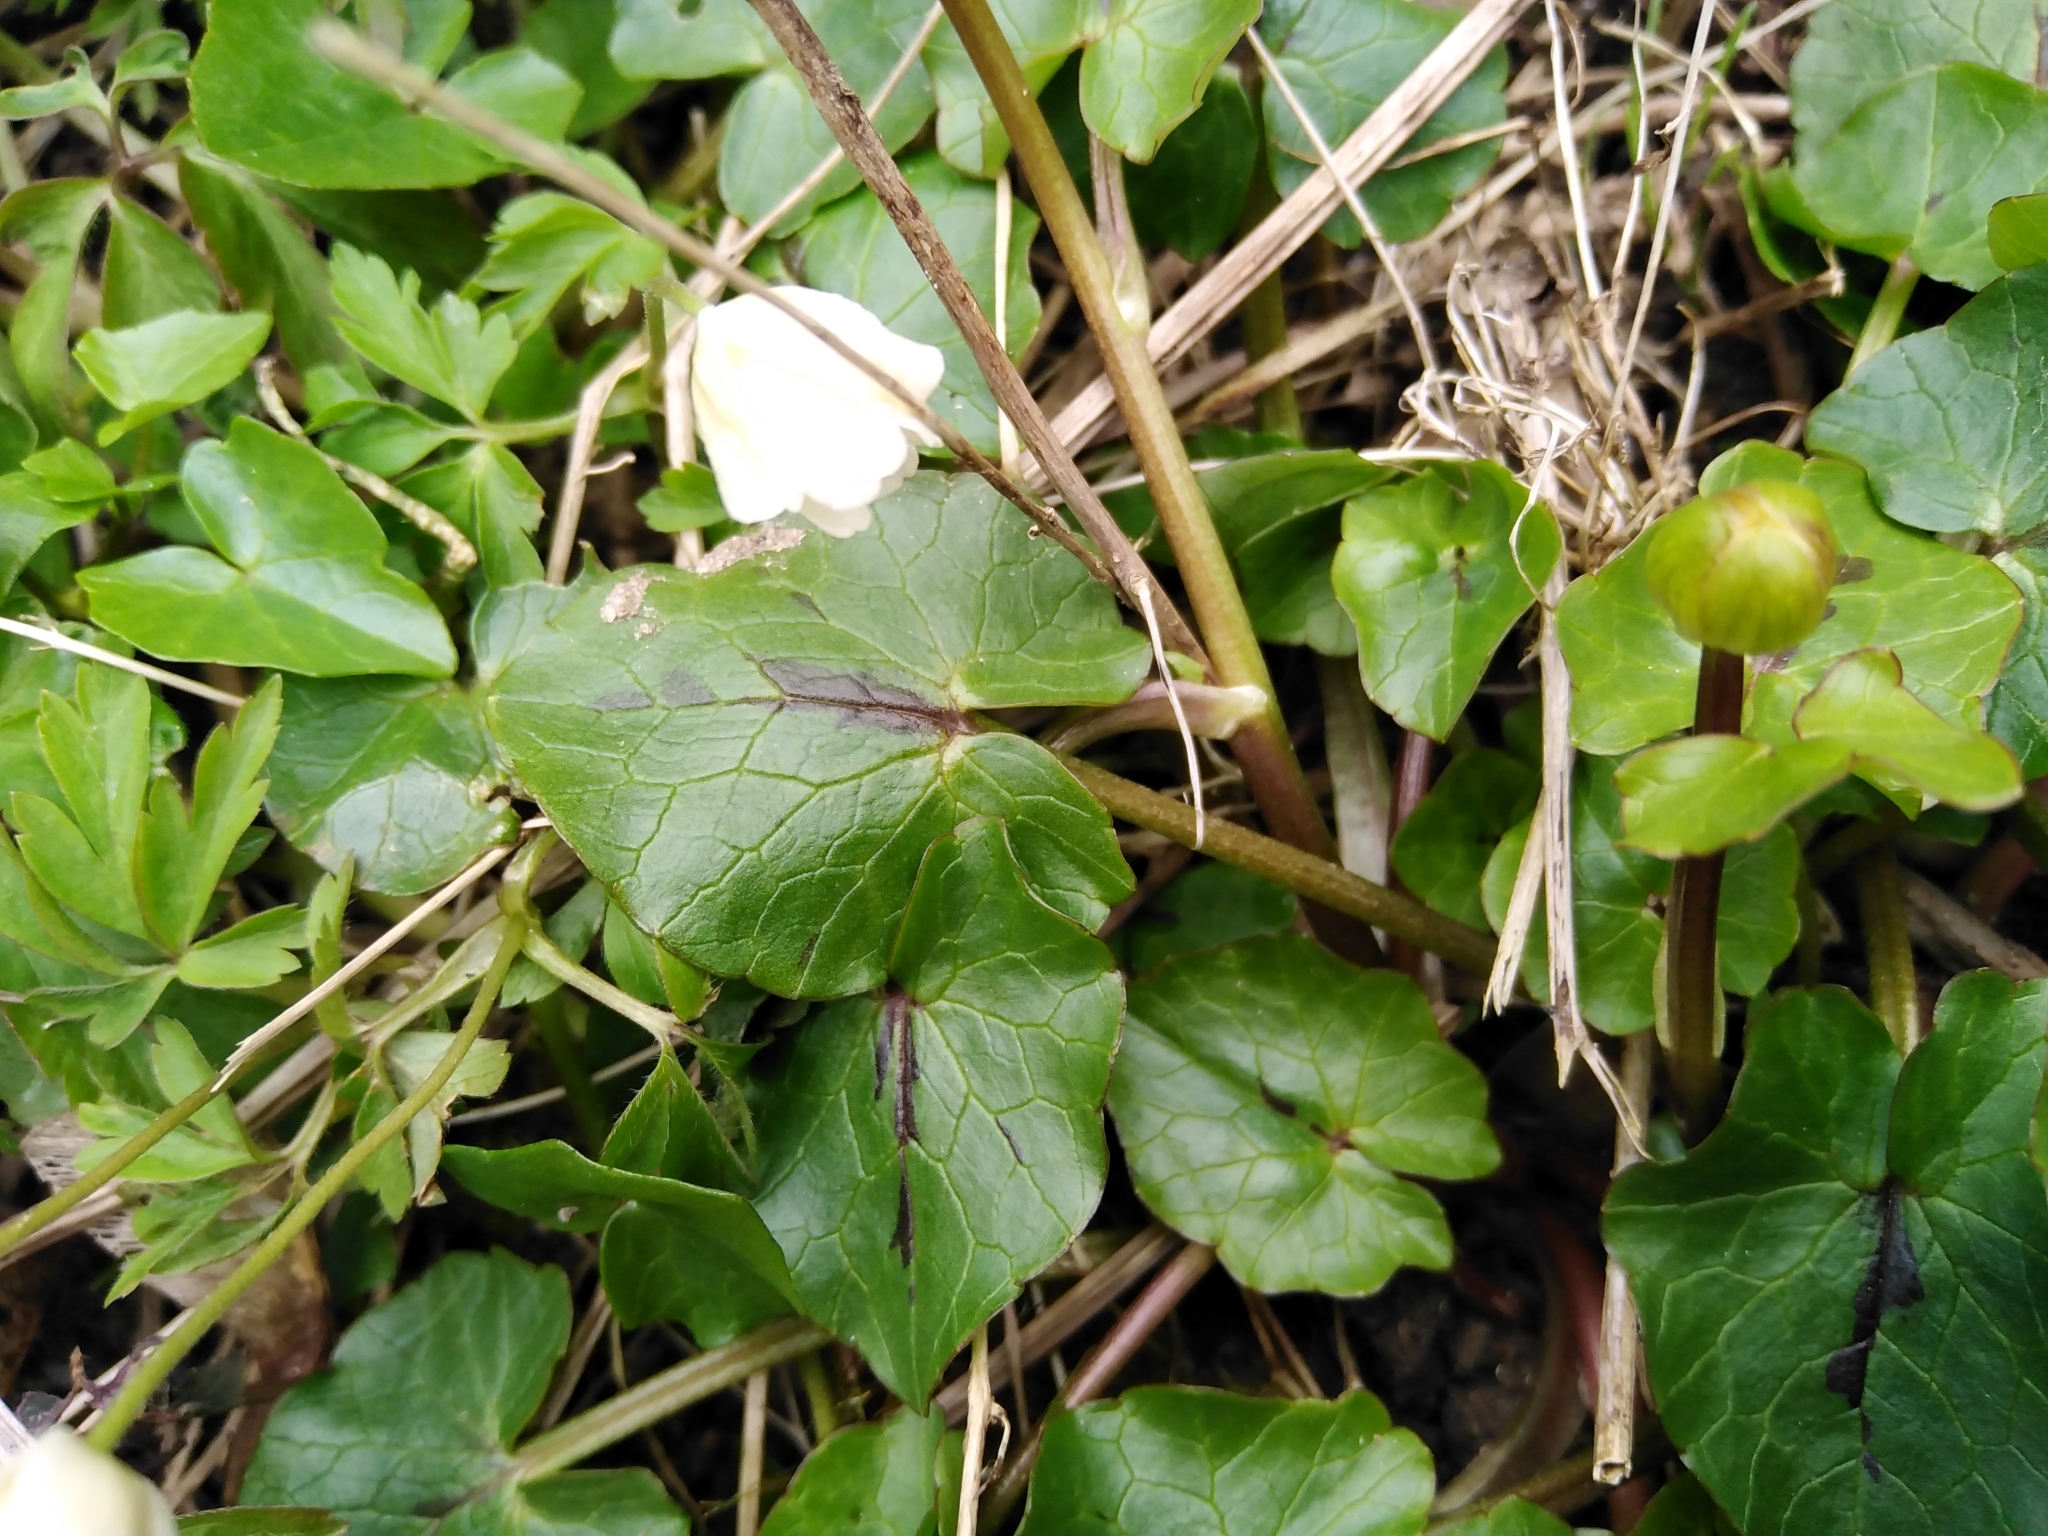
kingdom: Plantae
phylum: Tracheophyta
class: Magnoliopsida
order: Ranunculales
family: Ranunculaceae
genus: Ficaria
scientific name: Ficaria verna
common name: Lesser celandine
